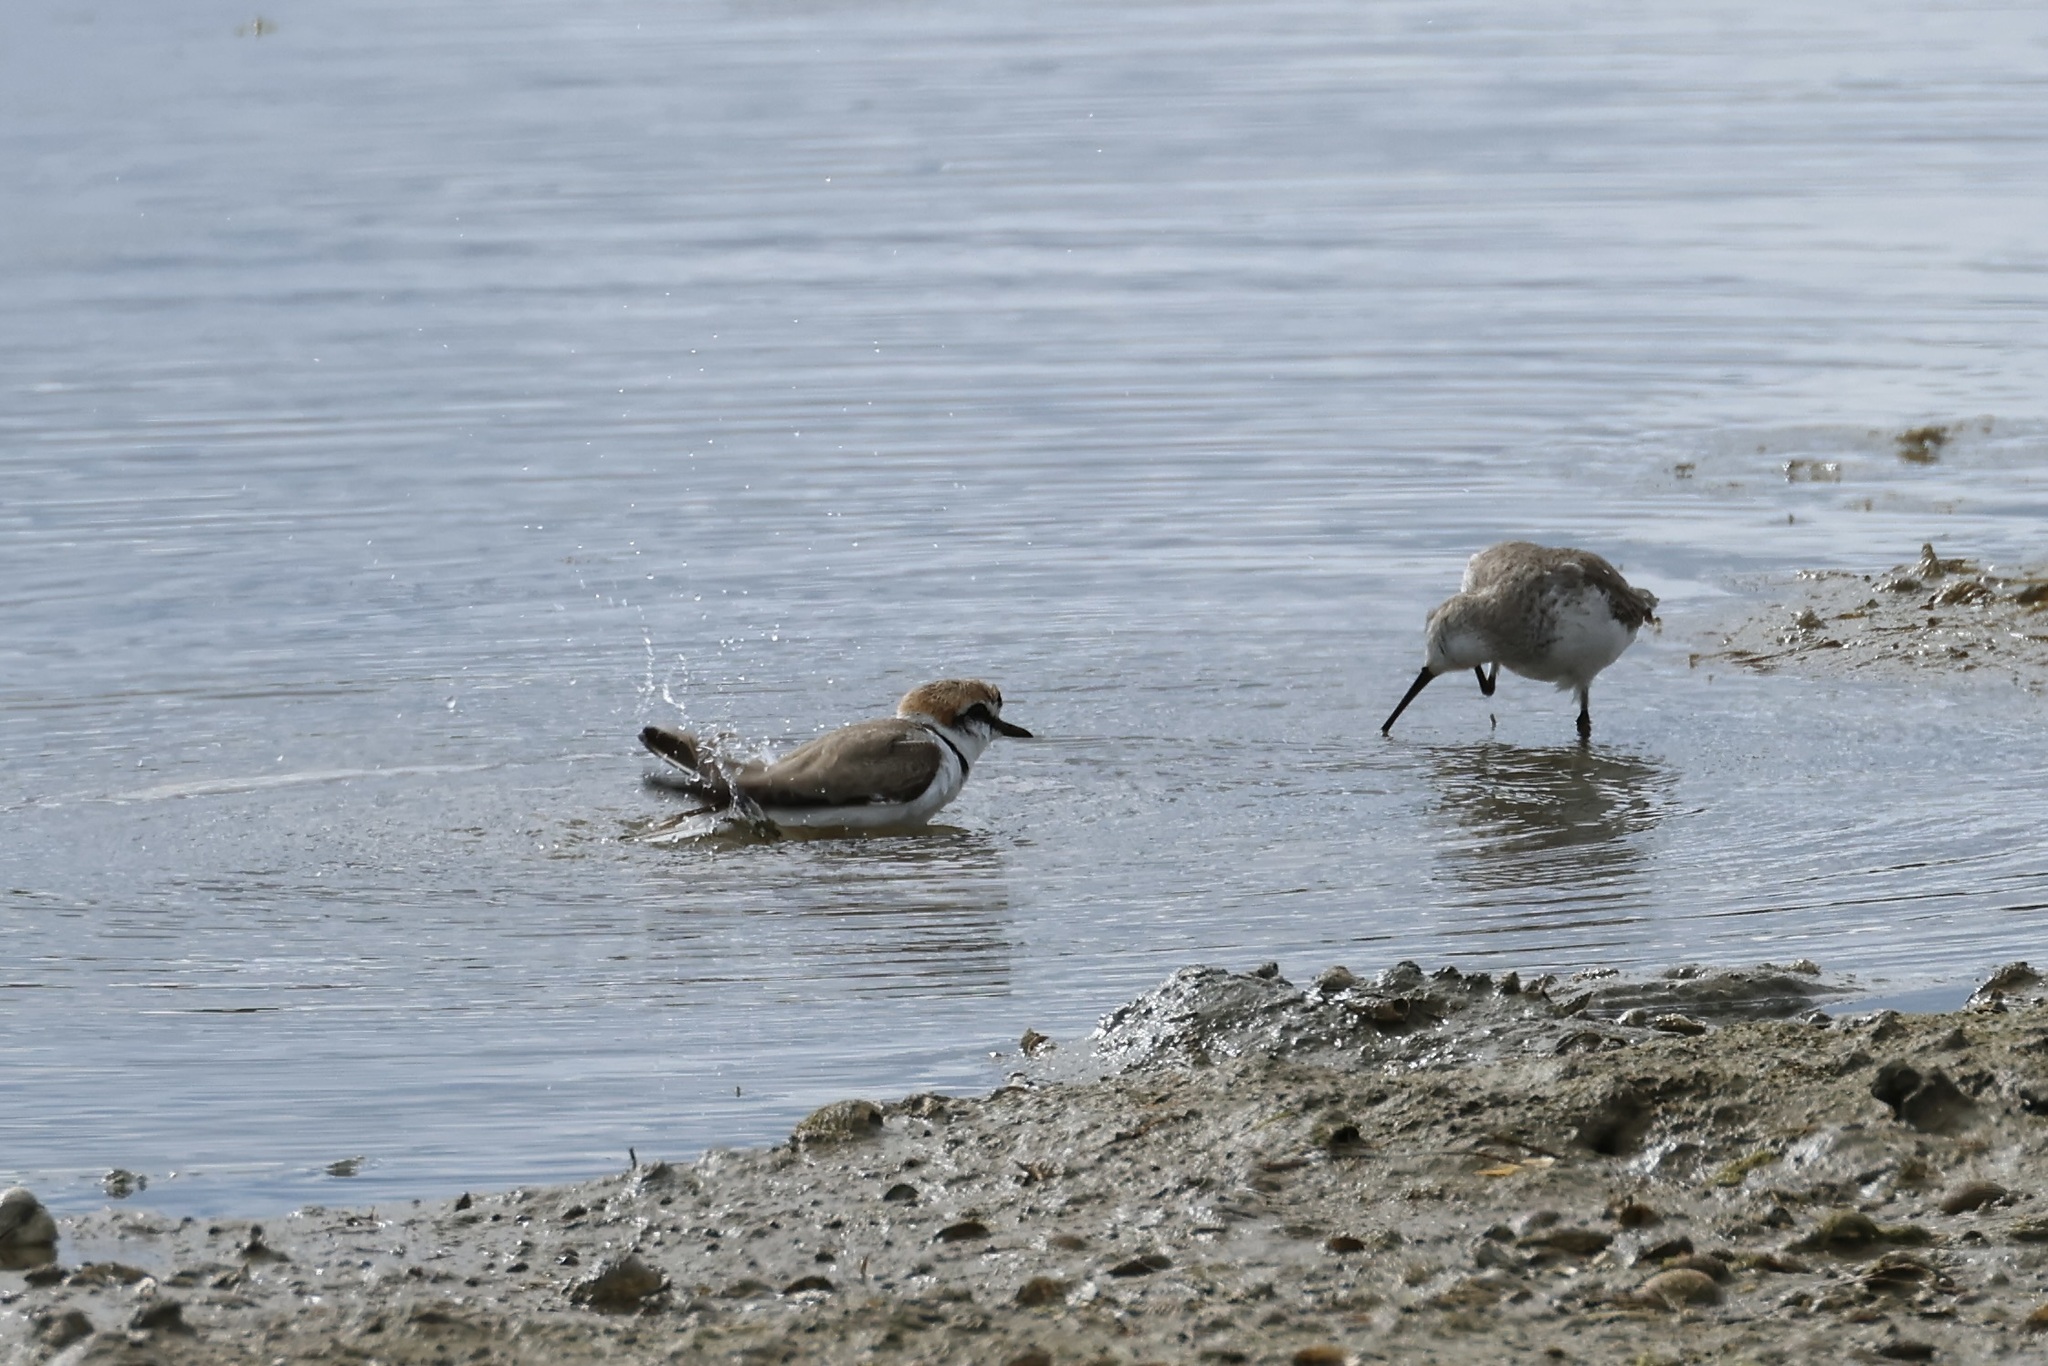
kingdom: Animalia
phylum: Chordata
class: Aves
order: Charadriiformes
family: Charadriidae
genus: Charadrius
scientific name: Charadrius alexandrinus
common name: Kentish plover
